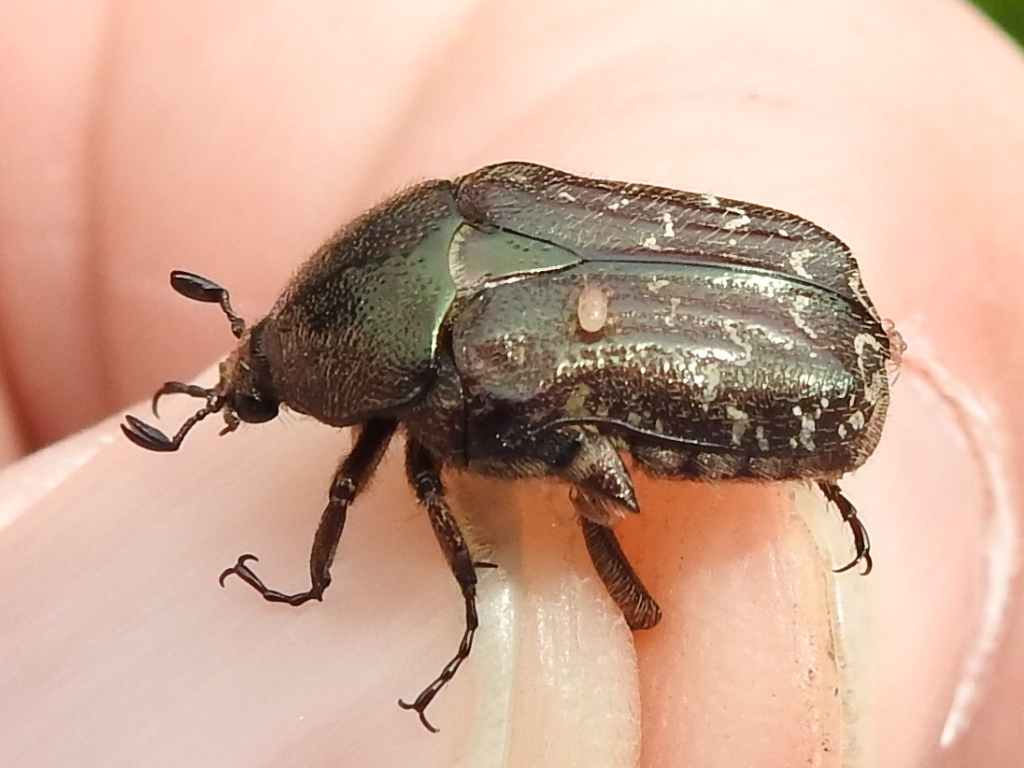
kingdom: Animalia
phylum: Arthropoda
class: Insecta
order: Coleoptera
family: Scarabaeidae
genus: Euphoria
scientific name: Euphoria sepulcralis
